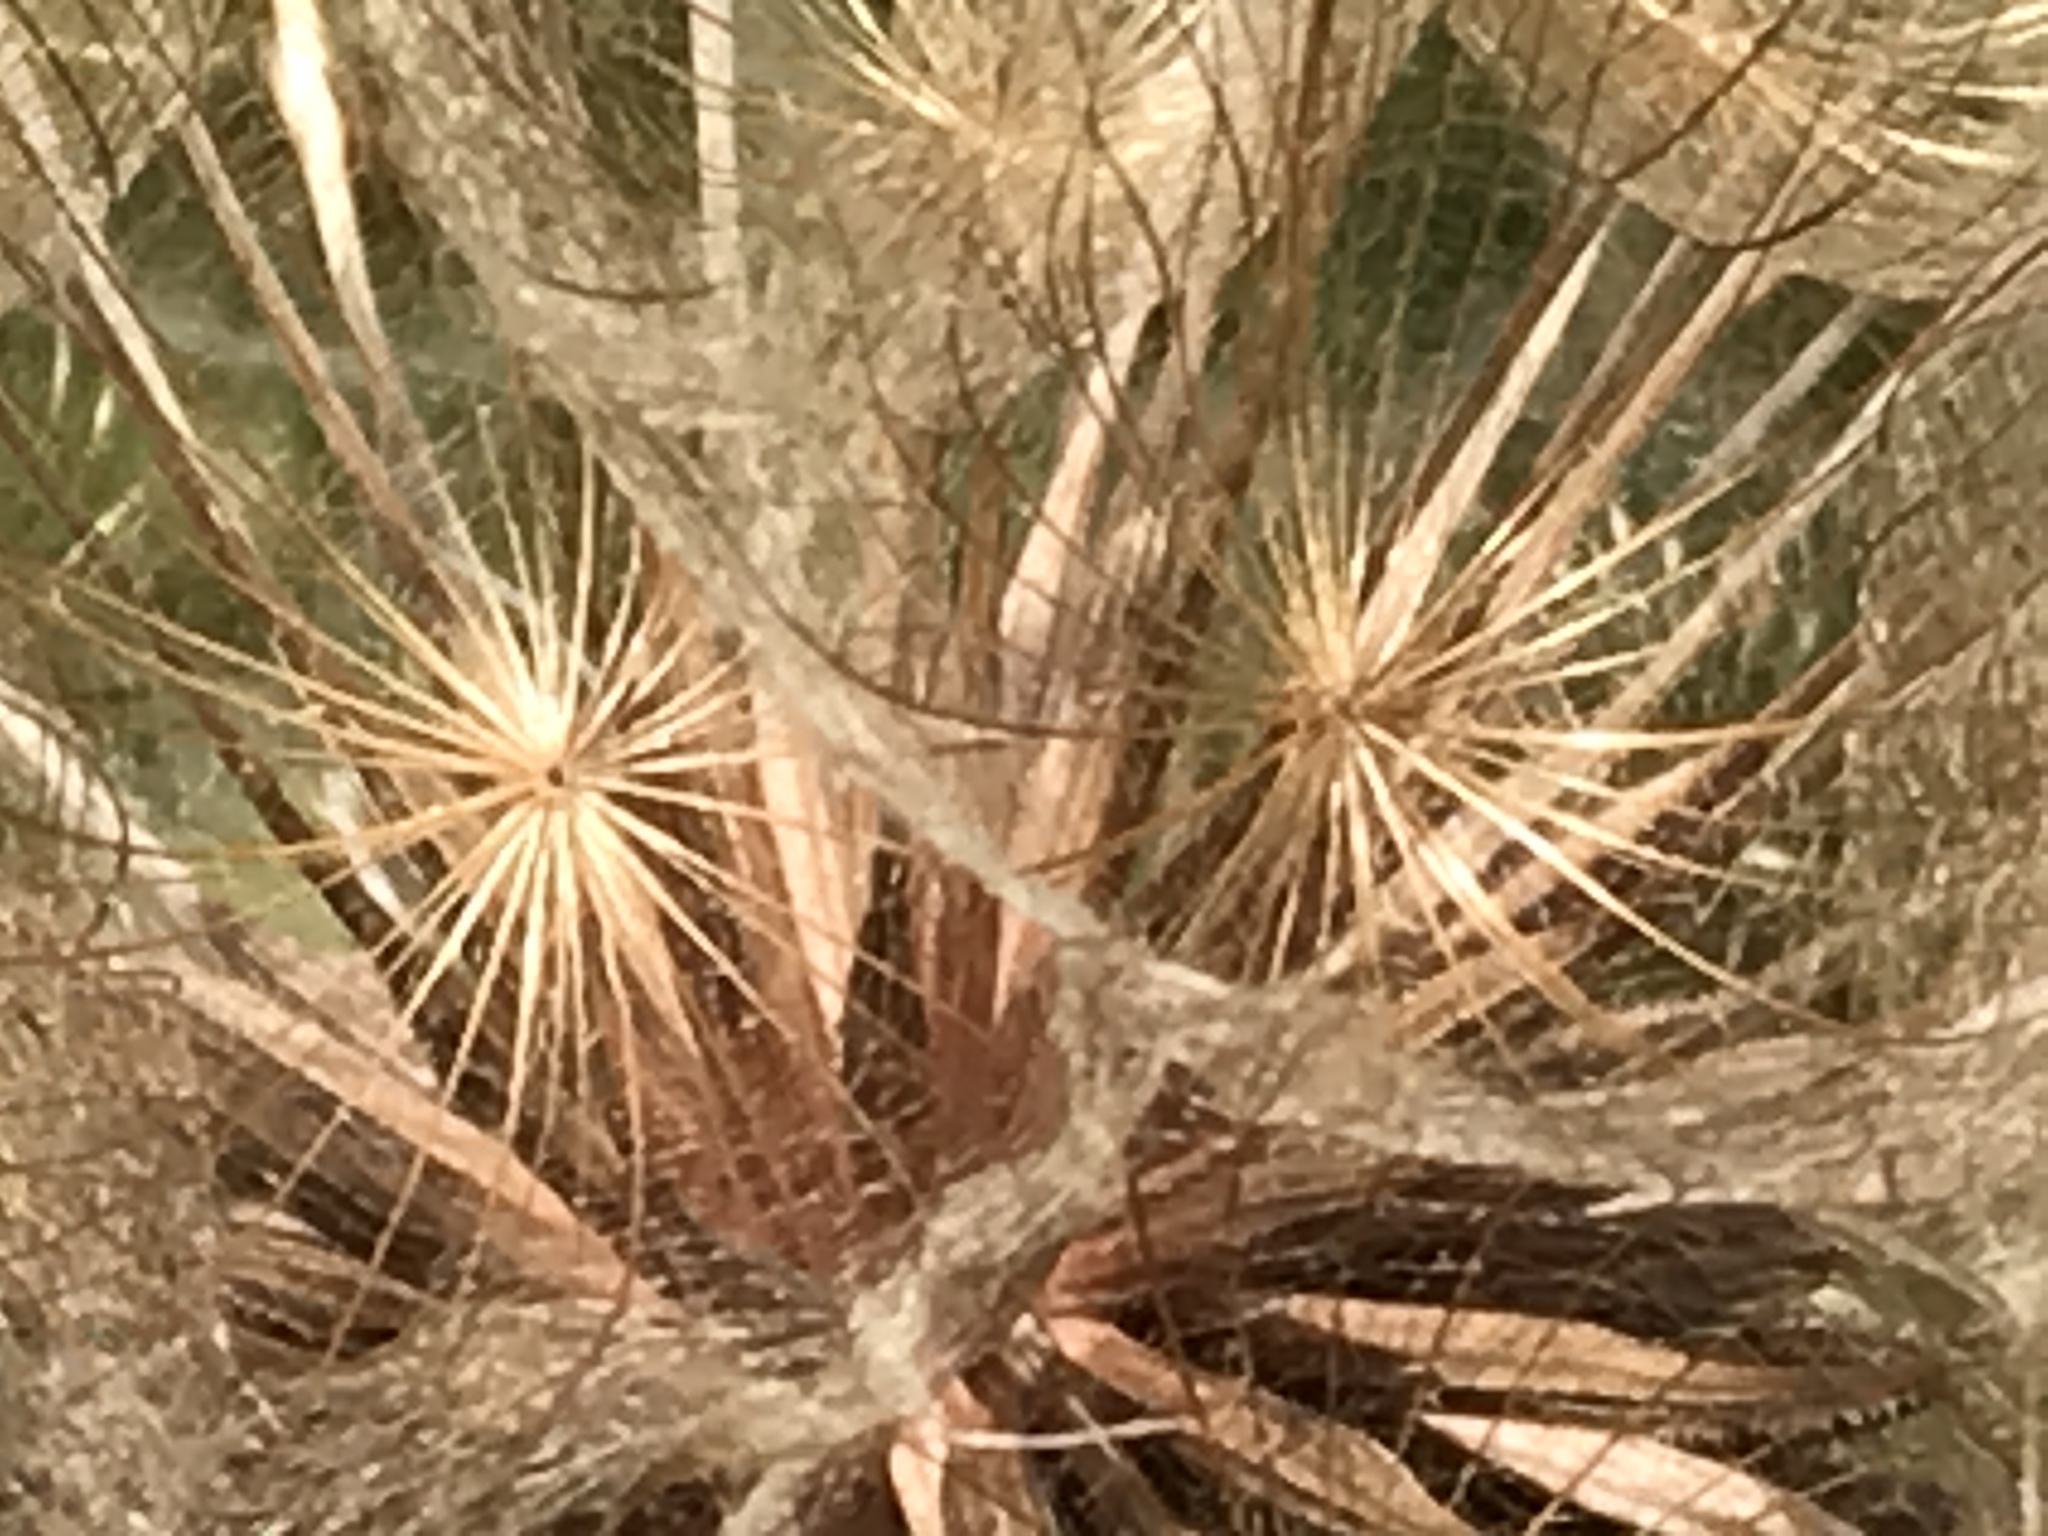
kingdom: Plantae
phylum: Tracheophyta
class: Magnoliopsida
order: Asterales
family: Asteraceae
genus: Tragopogon
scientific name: Tragopogon porrifolius
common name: Salsify
